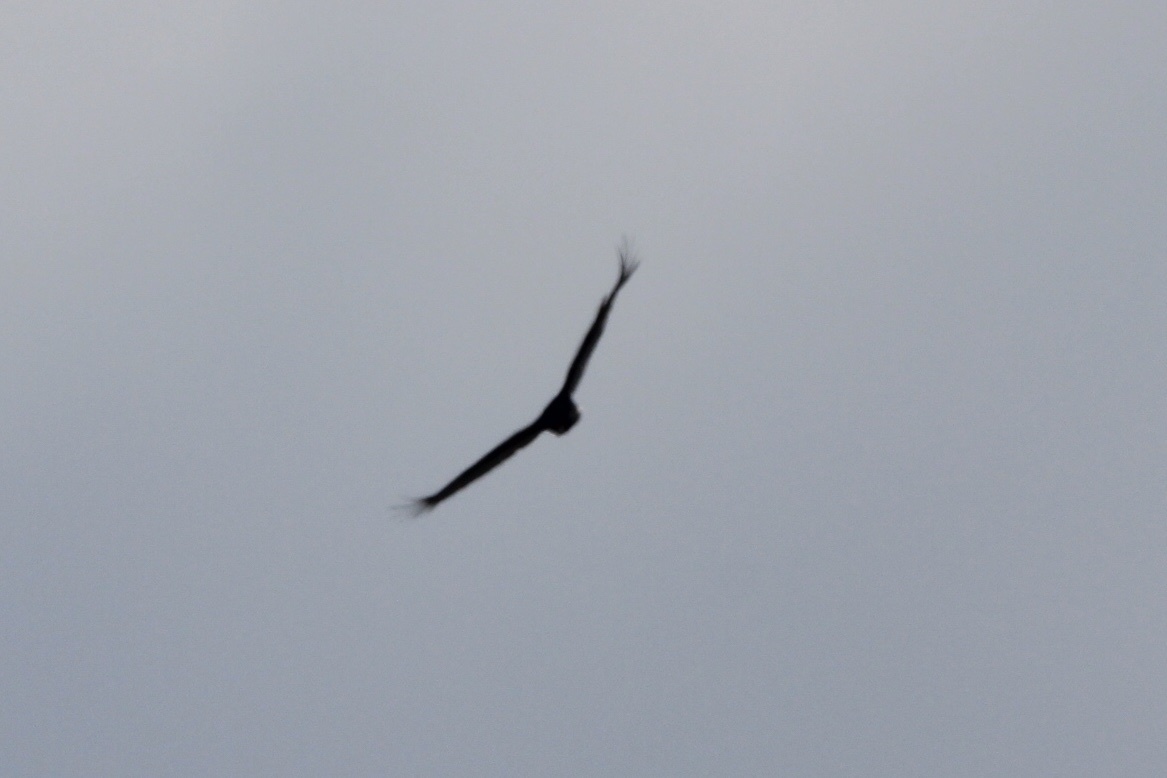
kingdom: Animalia
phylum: Chordata
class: Aves
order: Accipitriformes
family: Cathartidae
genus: Cathartes
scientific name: Cathartes aura
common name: Turkey vulture
